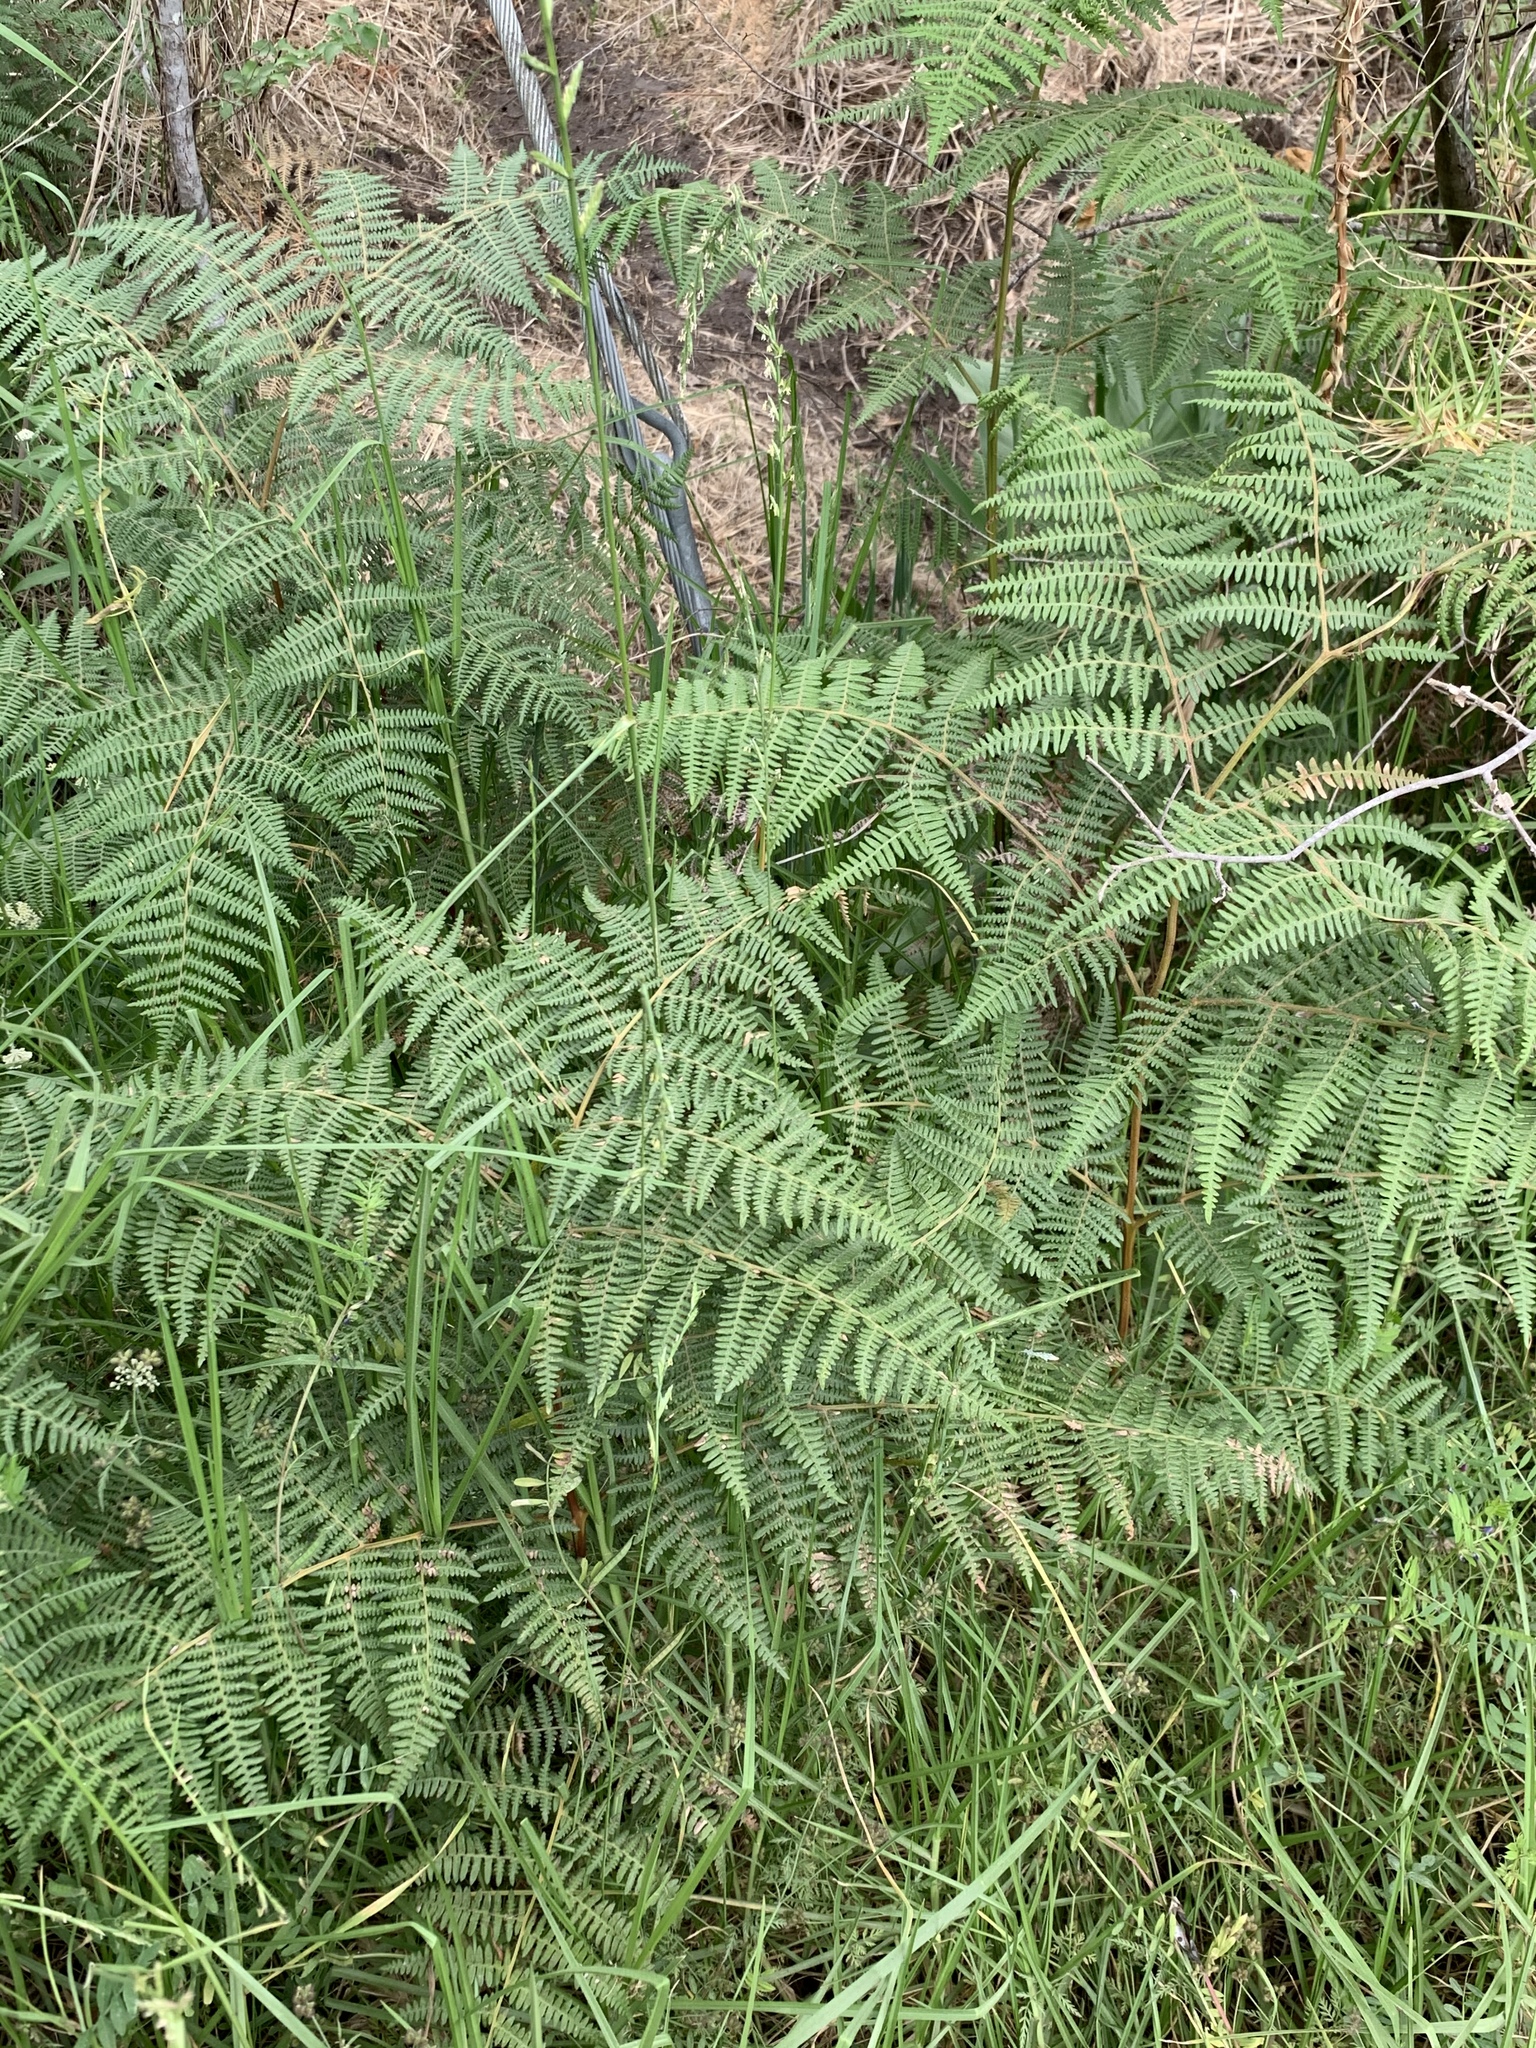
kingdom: Plantae
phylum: Tracheophyta
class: Polypodiopsida
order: Polypodiales
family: Dennstaedtiaceae
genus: Pteridium
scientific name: Pteridium aquilinum
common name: Bracken
